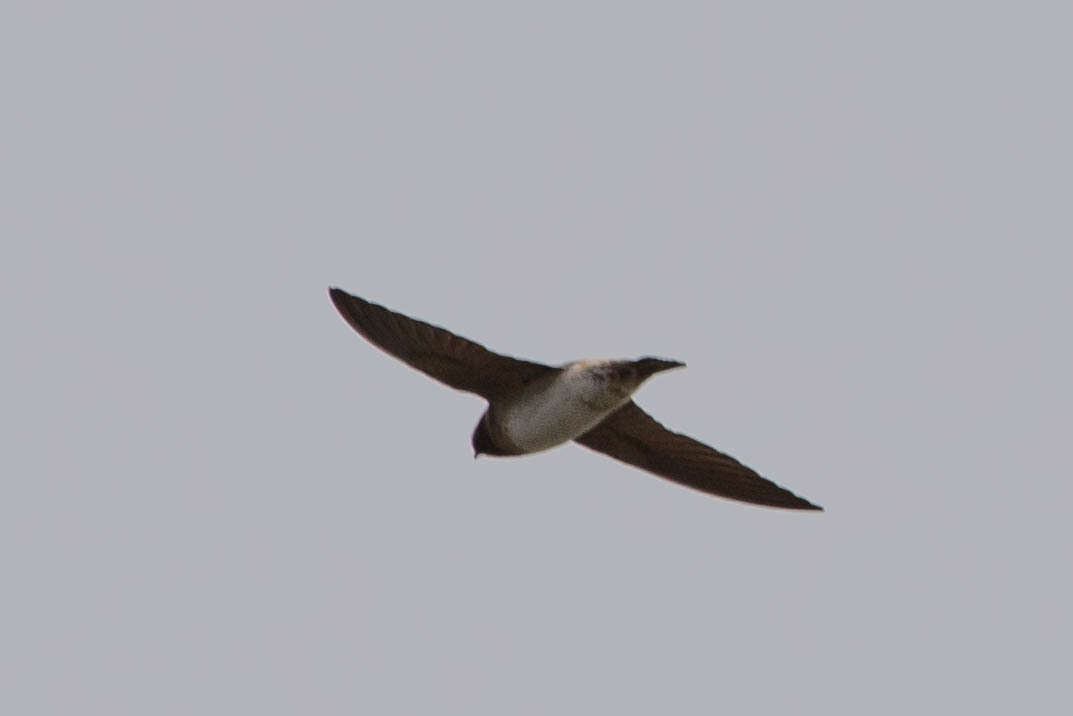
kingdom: Animalia
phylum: Chordata
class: Aves
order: Passeriformes
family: Hirundinidae
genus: Petrochelidon
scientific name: Petrochelidon pyrrhonota
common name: American cliff swallow
